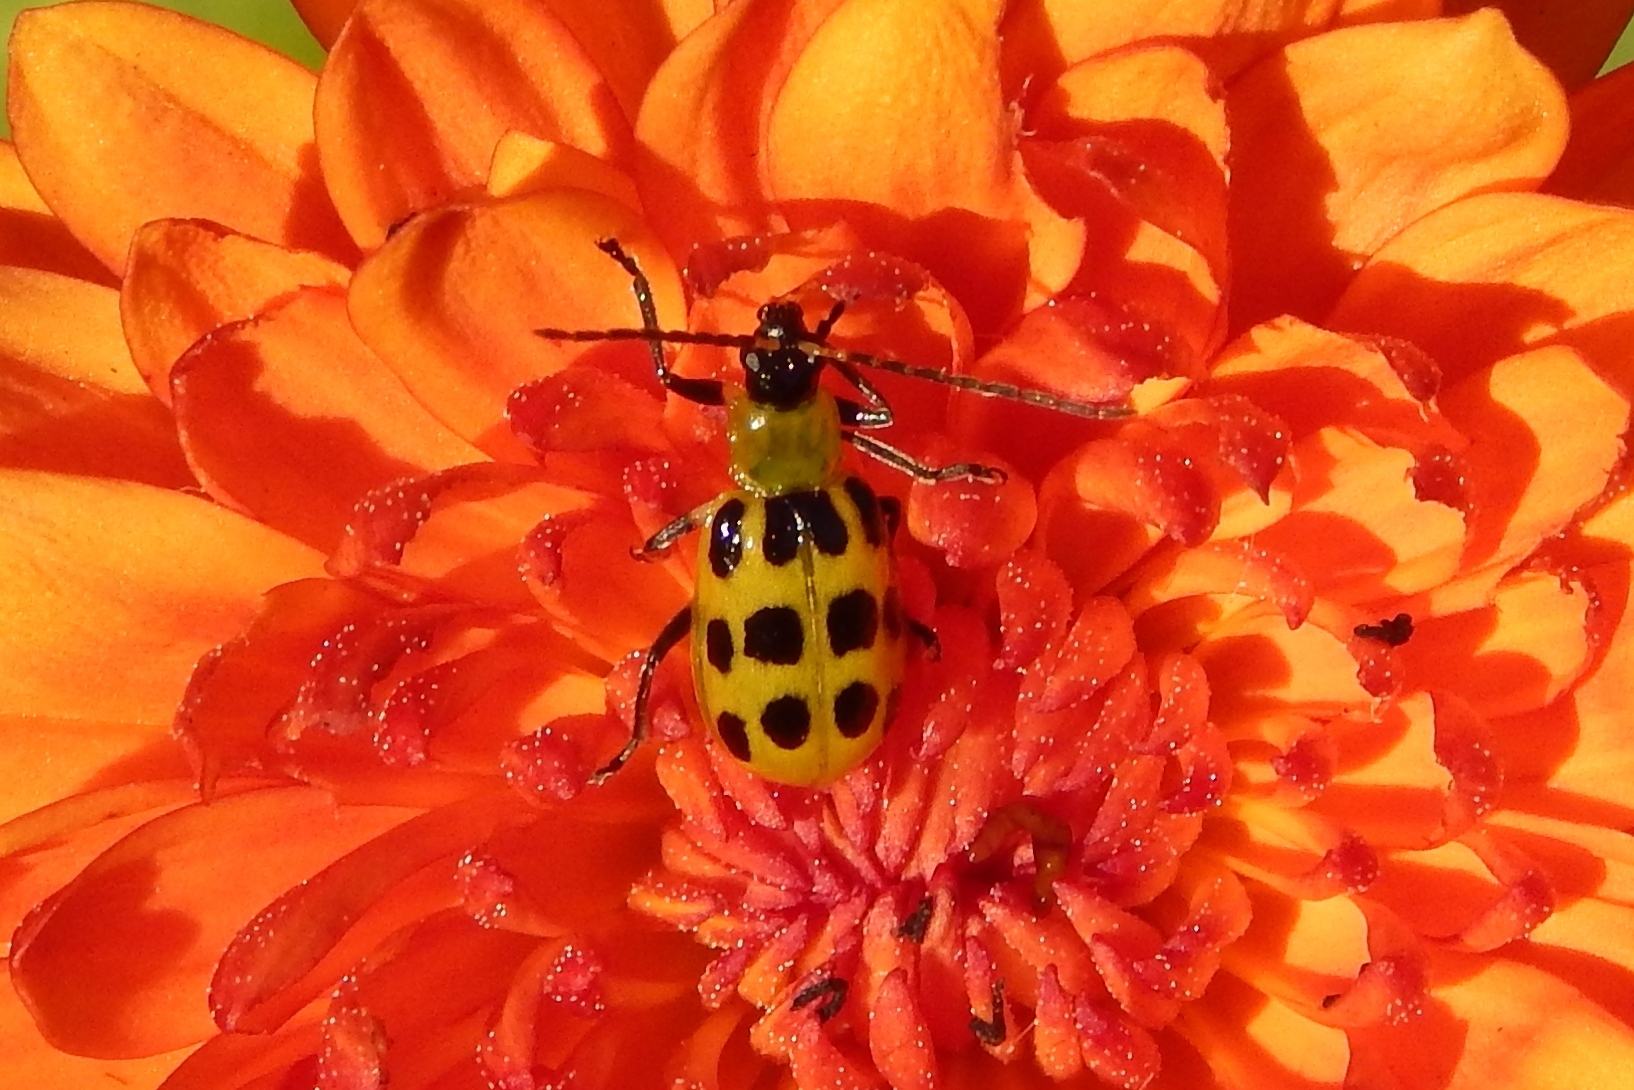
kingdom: Animalia
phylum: Arthropoda
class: Insecta
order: Coleoptera
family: Chrysomelidae
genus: Diabrotica
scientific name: Diabrotica undecimpunctata
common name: Spotted cucumber beetle
